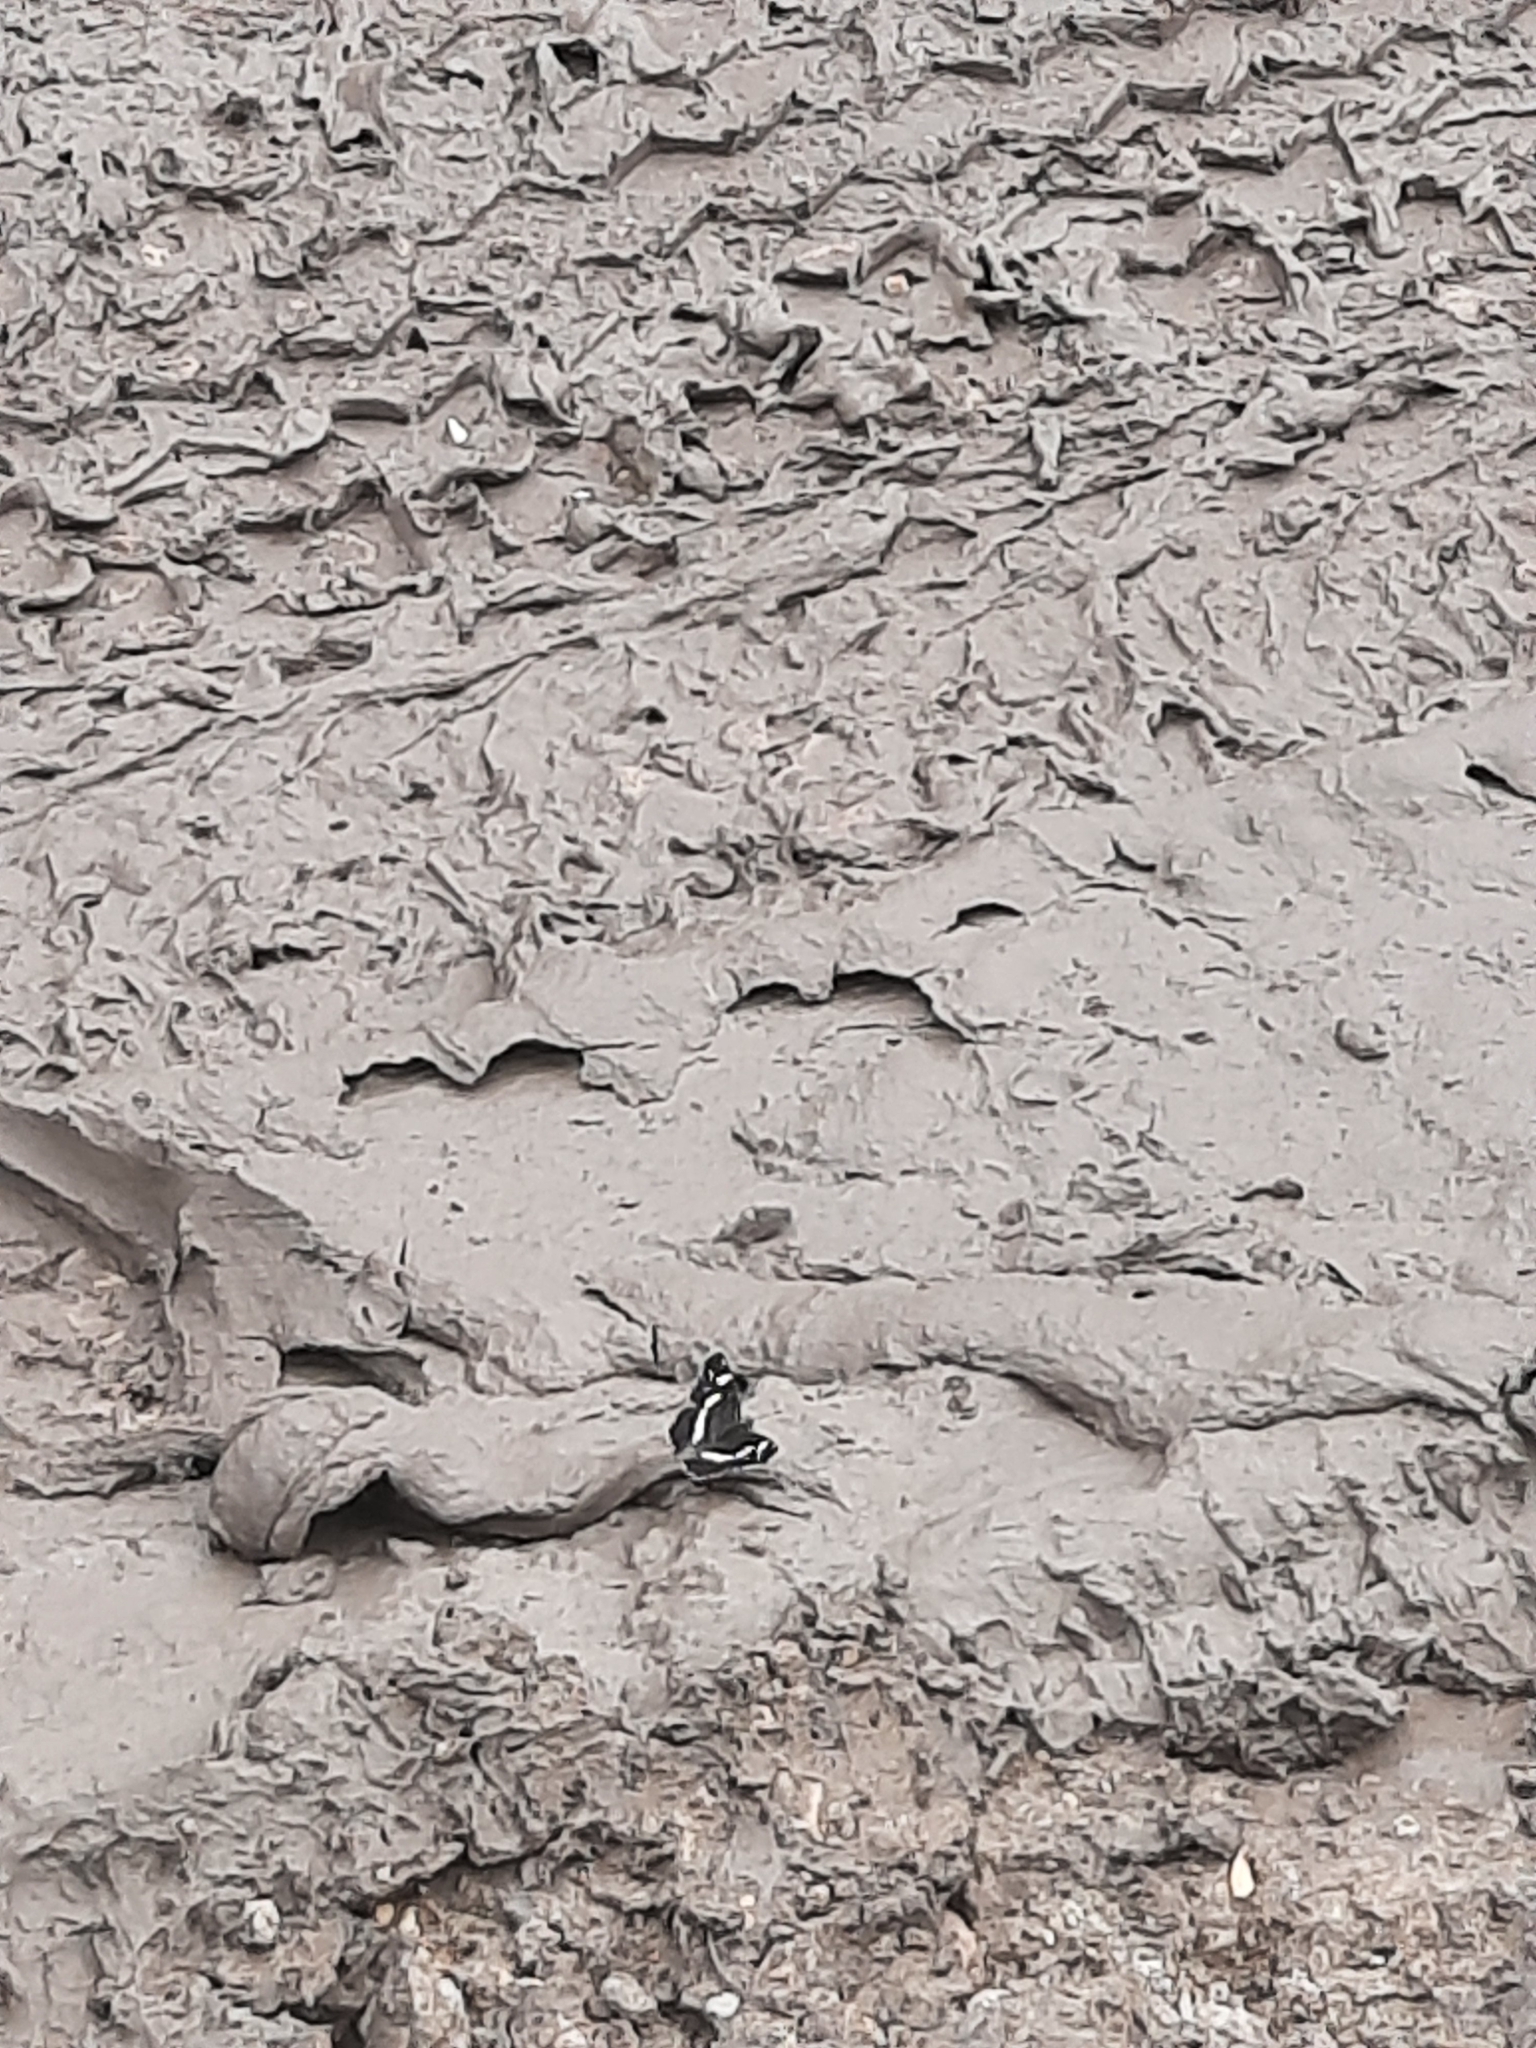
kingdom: Animalia
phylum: Arthropoda
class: Insecta
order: Lepidoptera
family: Nymphalidae
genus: Araschnia
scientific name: Araschnia levana
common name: Map butterfly
